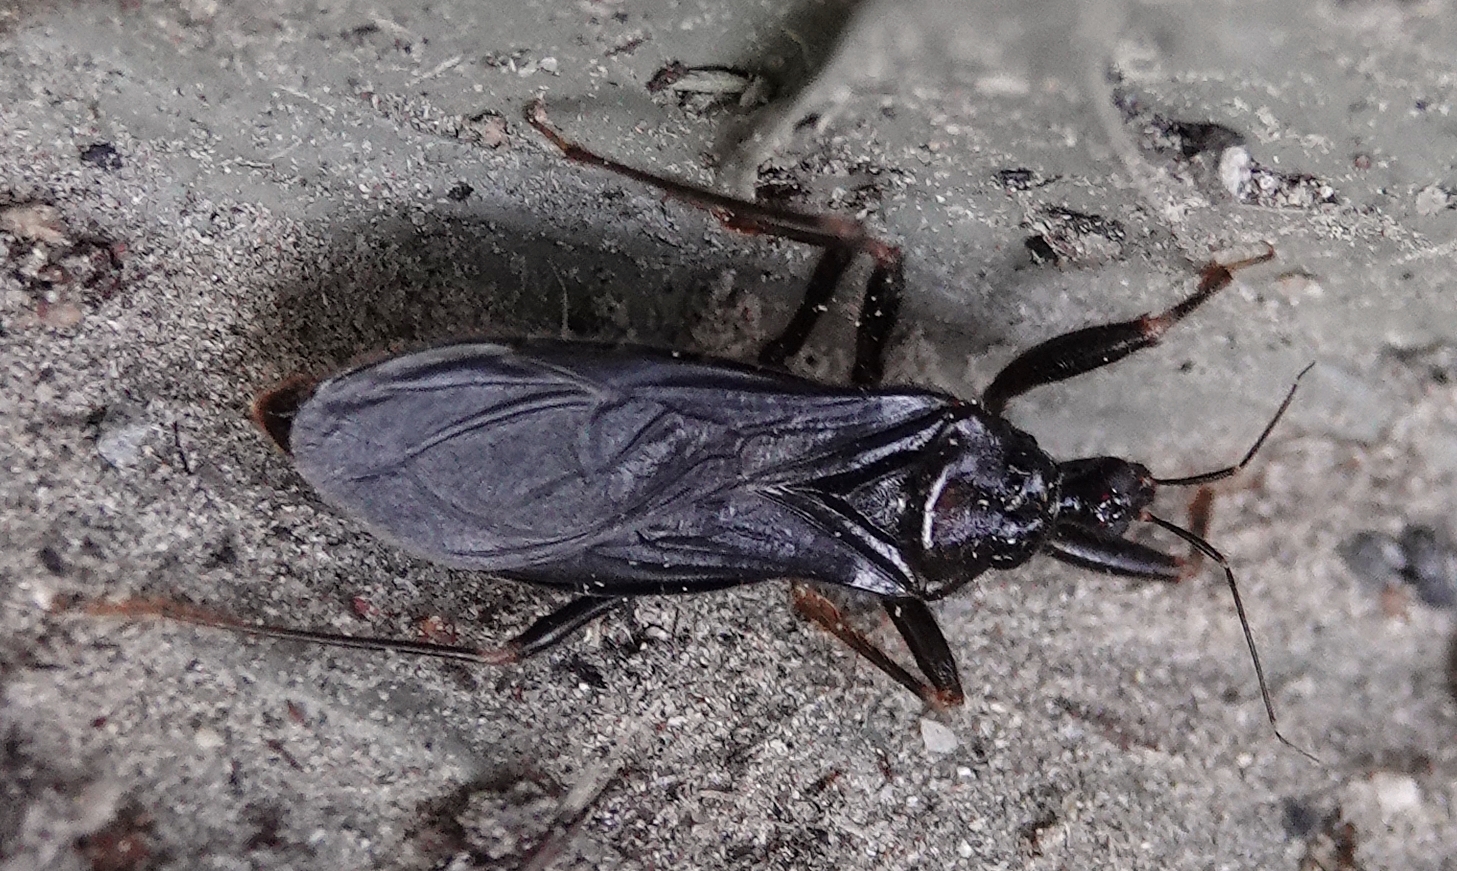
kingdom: Animalia
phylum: Arthropoda
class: Insecta
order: Hemiptera
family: Reduviidae
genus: Reduvius
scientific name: Reduvius personatus
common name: Masked hunter
